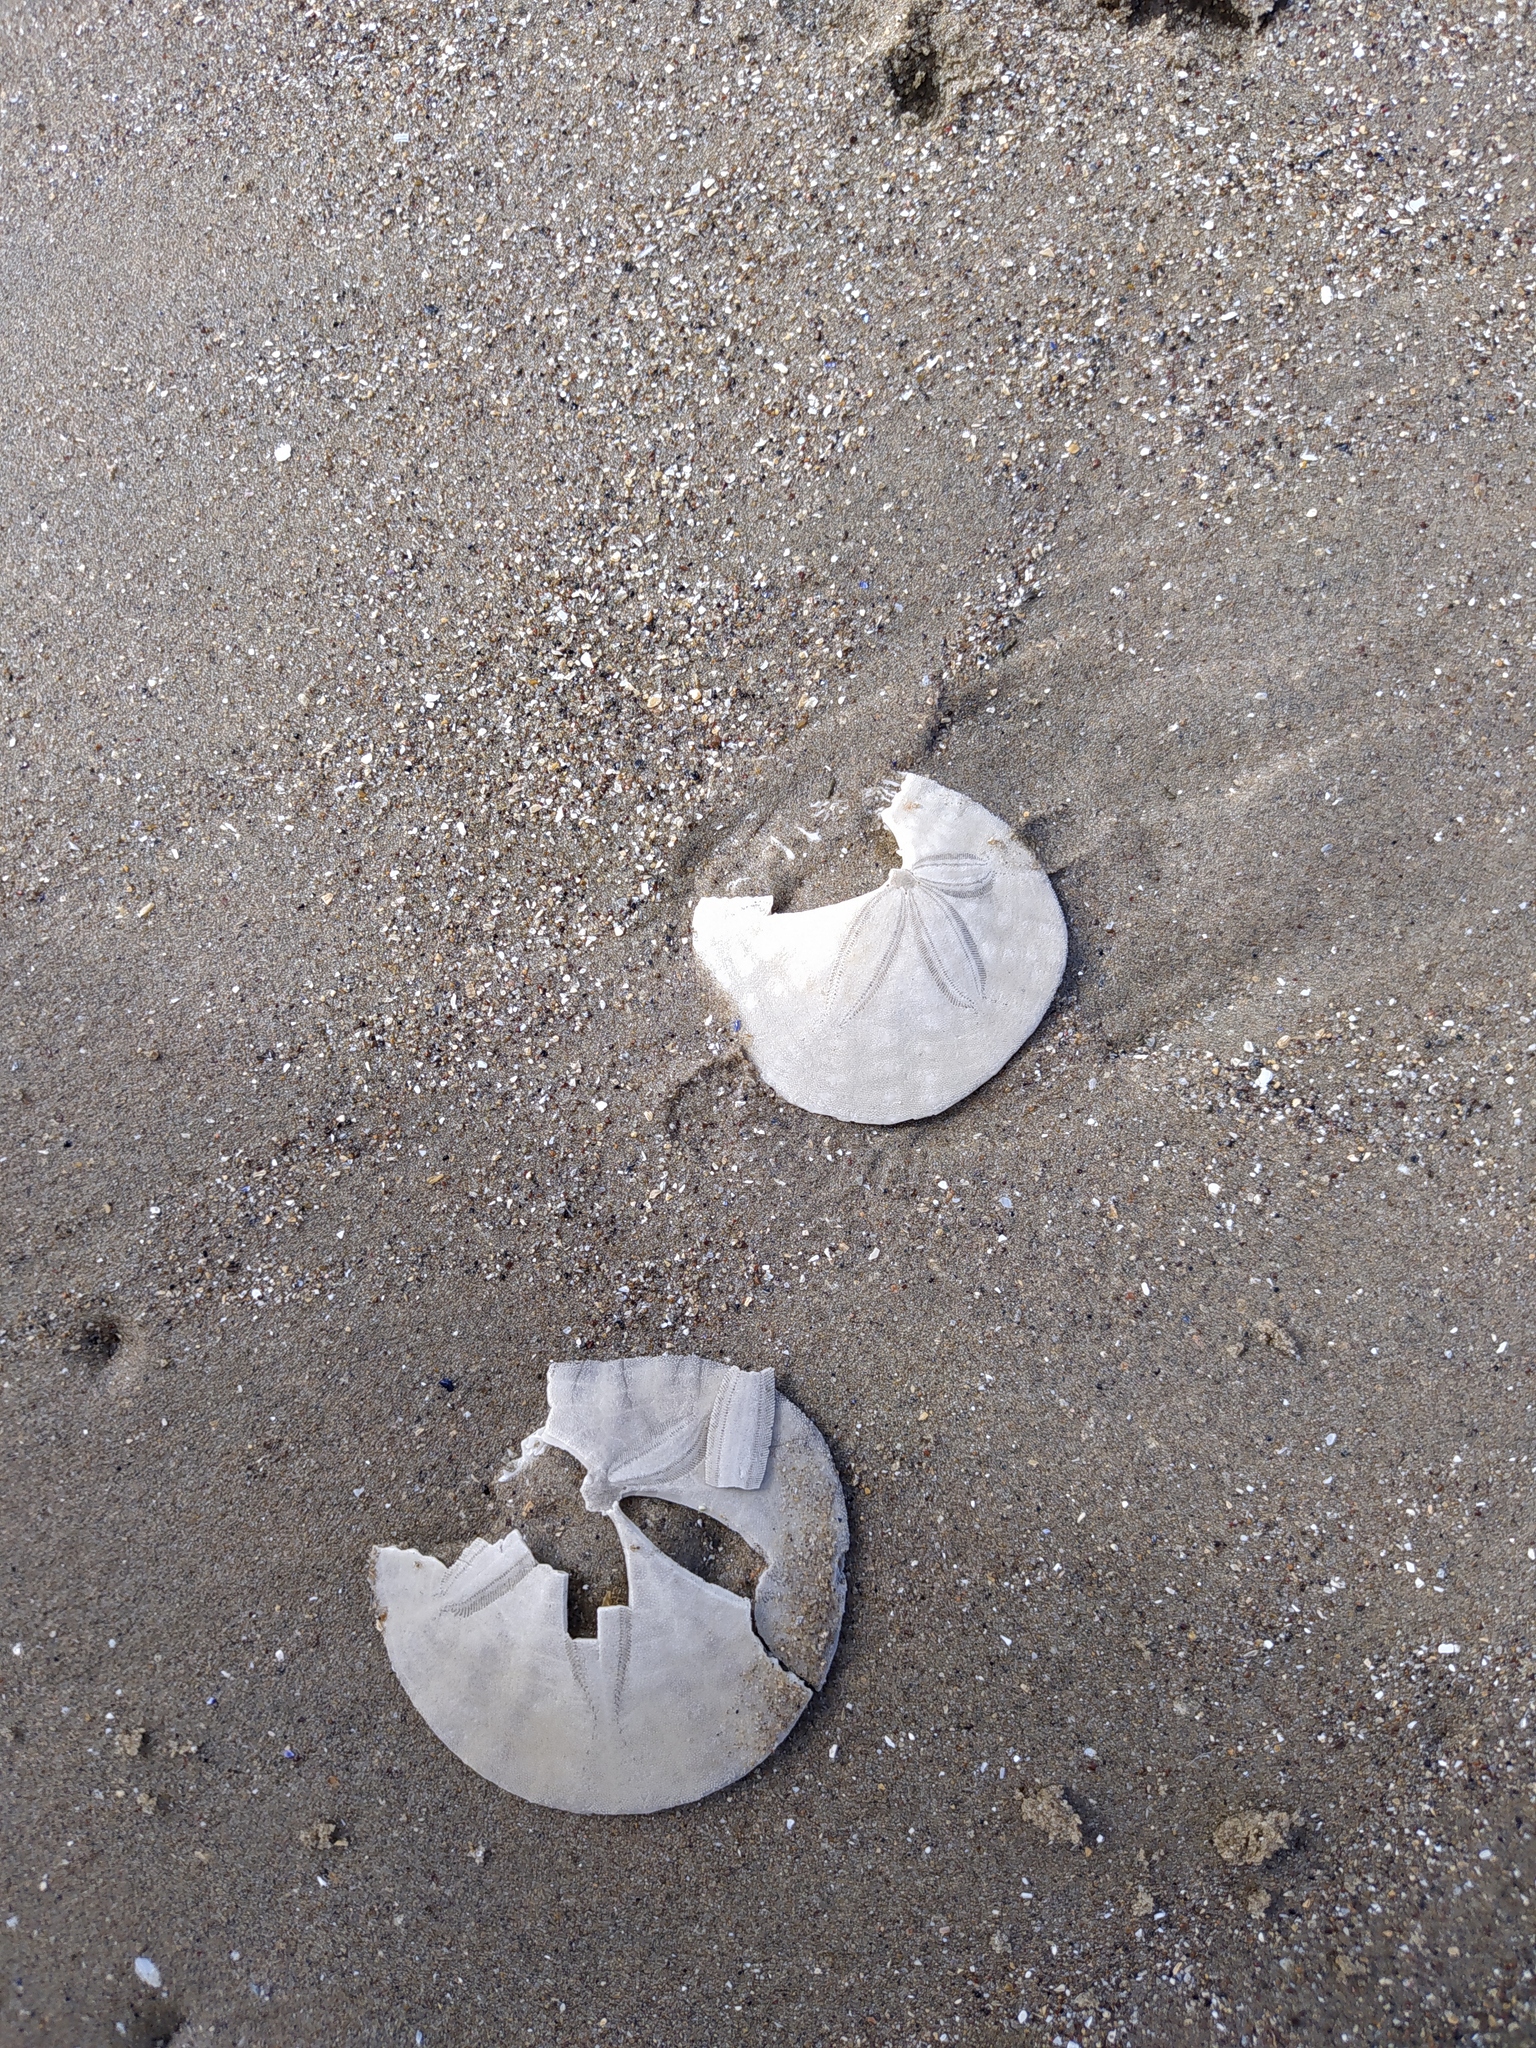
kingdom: Animalia
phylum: Echinodermata
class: Echinoidea
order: Echinolampadacea
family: Dendrasteridae
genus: Dendraster
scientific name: Dendraster excentricus
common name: Eccentric sand dollar sea urchin
